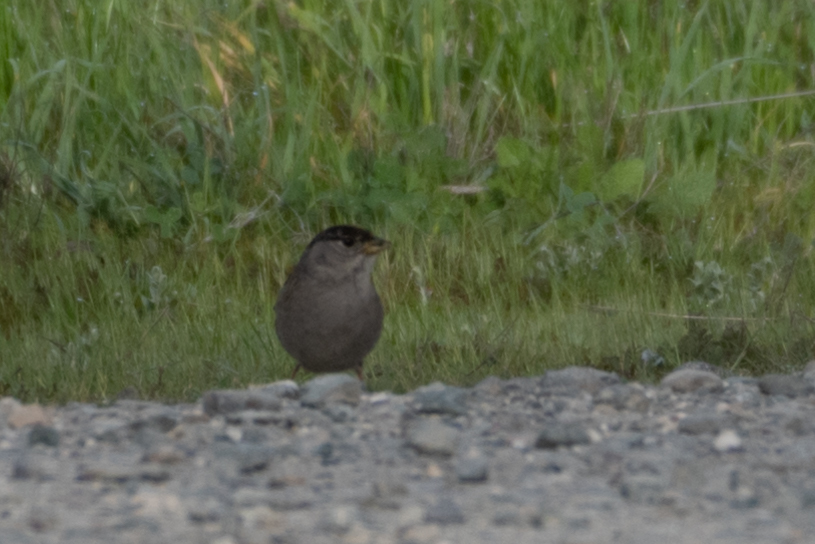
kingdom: Animalia
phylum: Chordata
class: Aves
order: Passeriformes
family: Passerellidae
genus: Zonotrichia
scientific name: Zonotrichia atricapilla
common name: Golden-crowned sparrow
